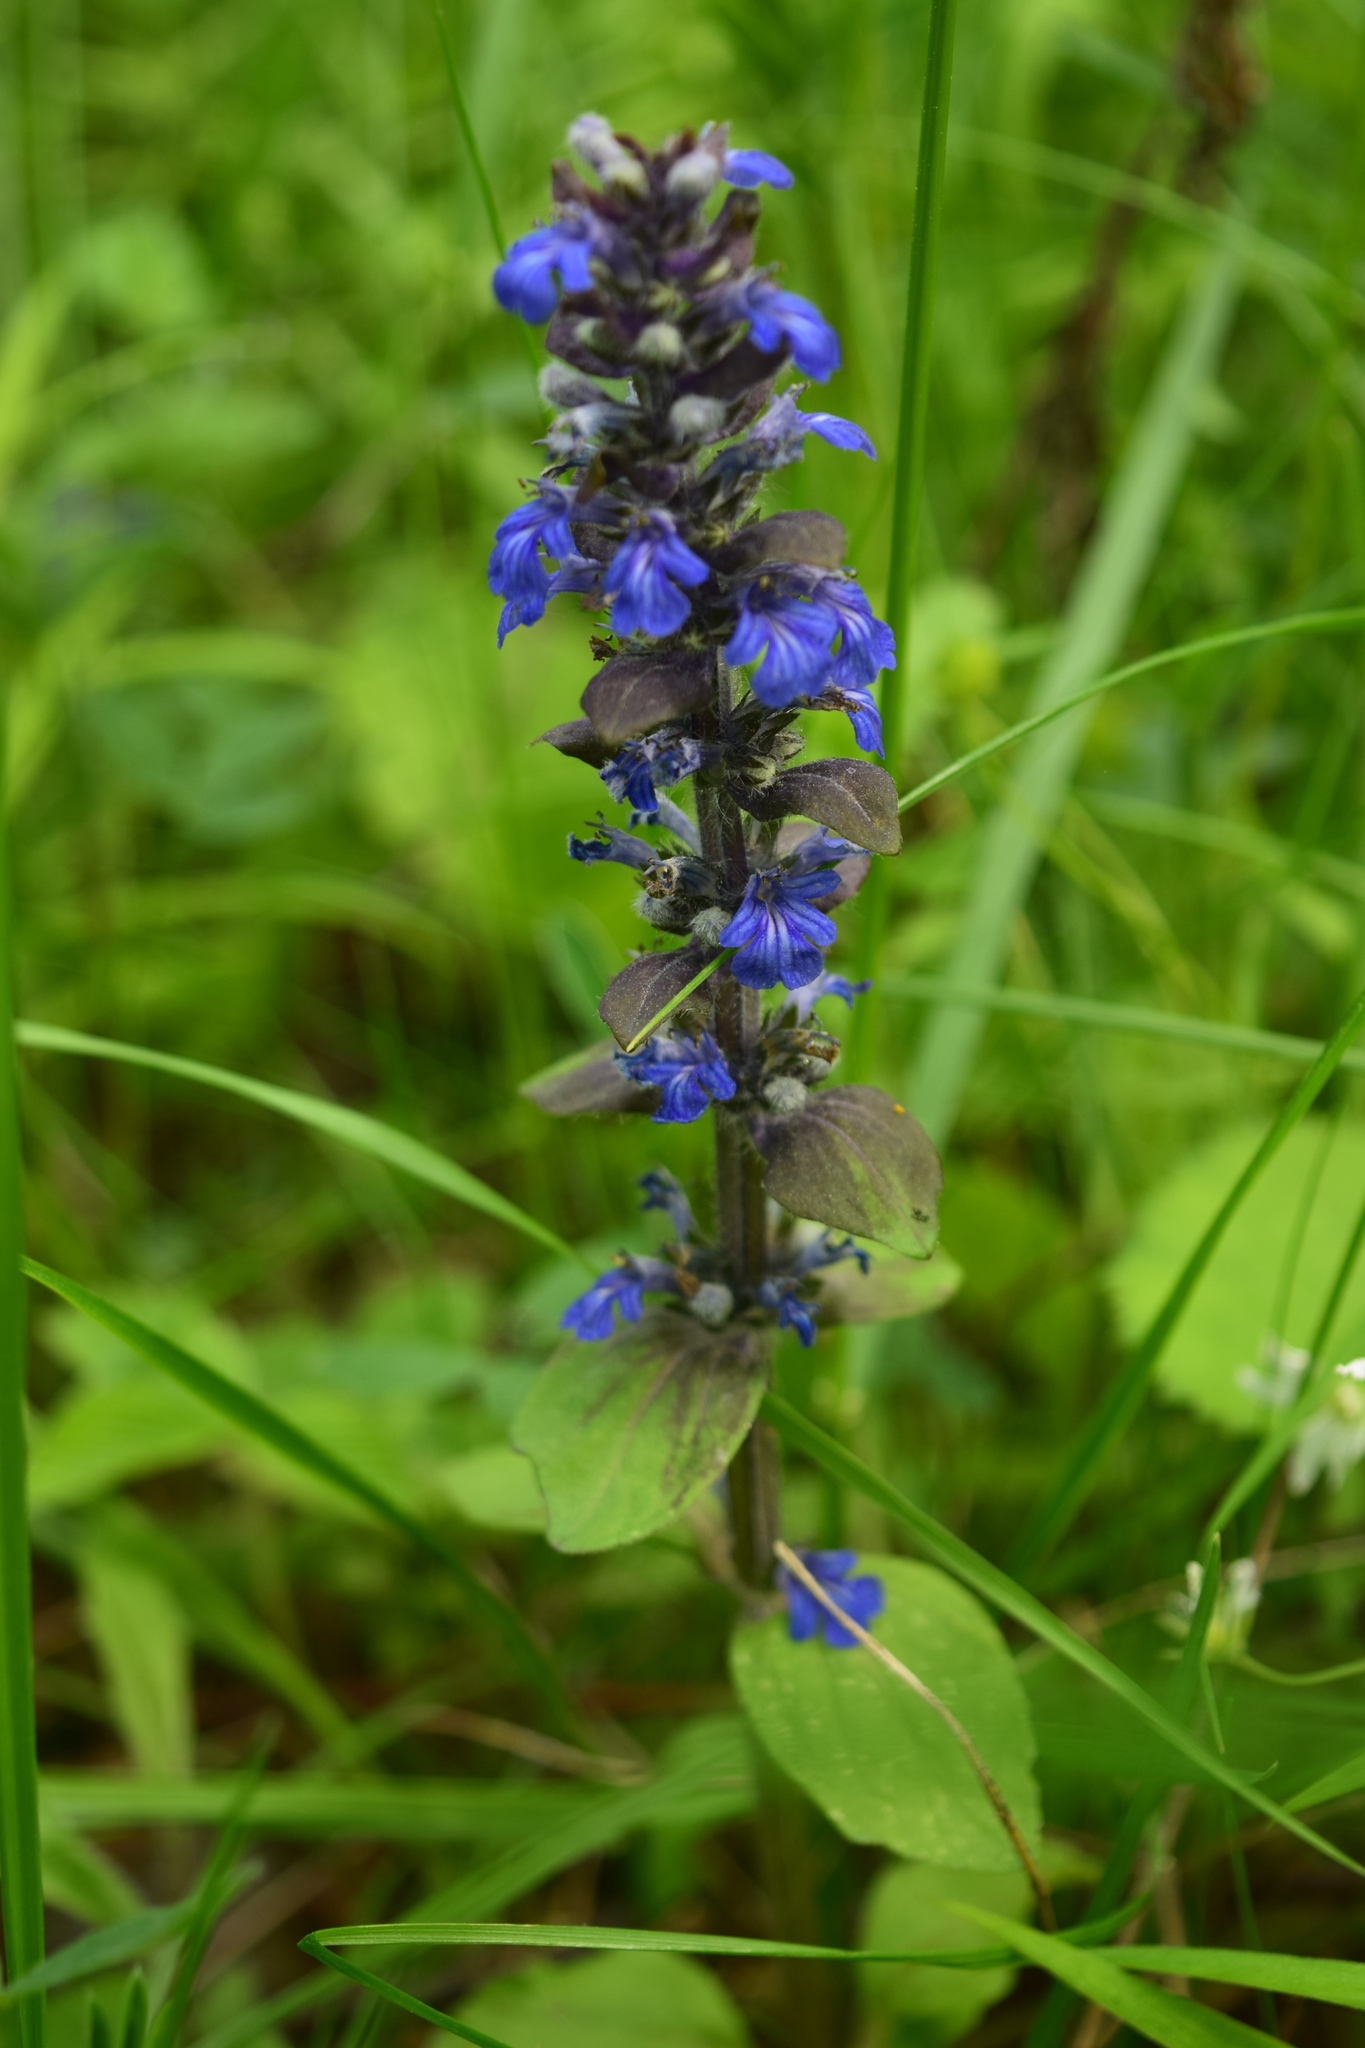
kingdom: Plantae
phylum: Tracheophyta
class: Magnoliopsida
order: Lamiales
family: Lamiaceae
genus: Ajuga
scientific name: Ajuga reptans
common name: Bugle
